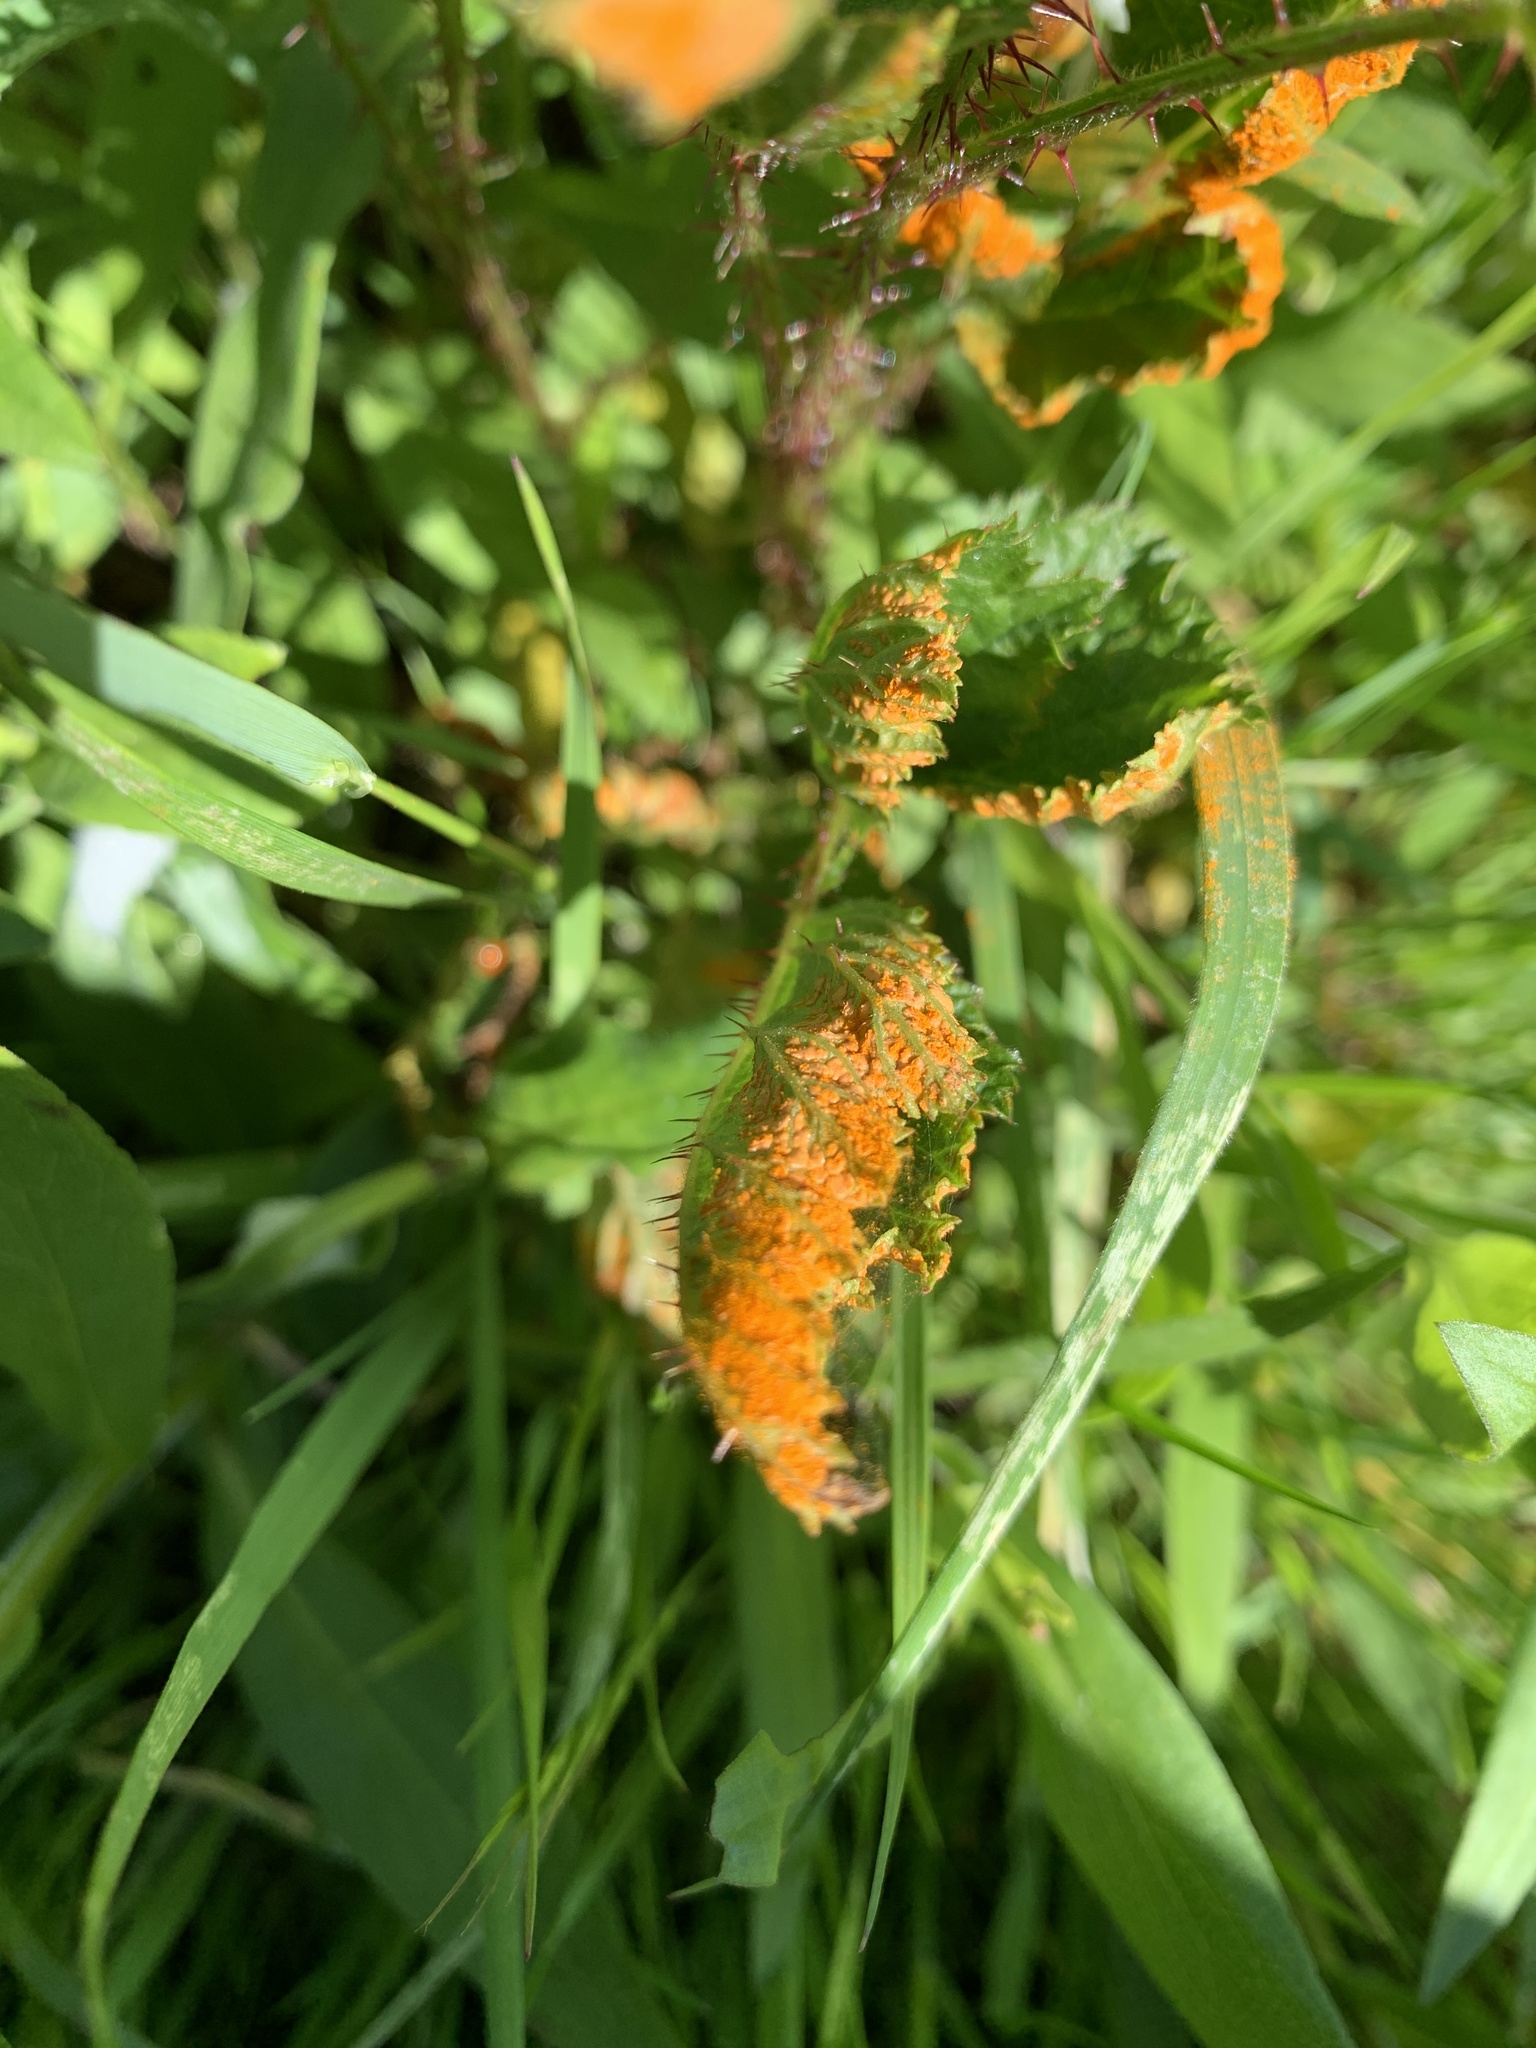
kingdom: Fungi
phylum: Basidiomycota
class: Pucciniomycetes
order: Pucciniales
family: Phragmidiaceae
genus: Arthuriomyces
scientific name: Arthuriomyces peckianus
